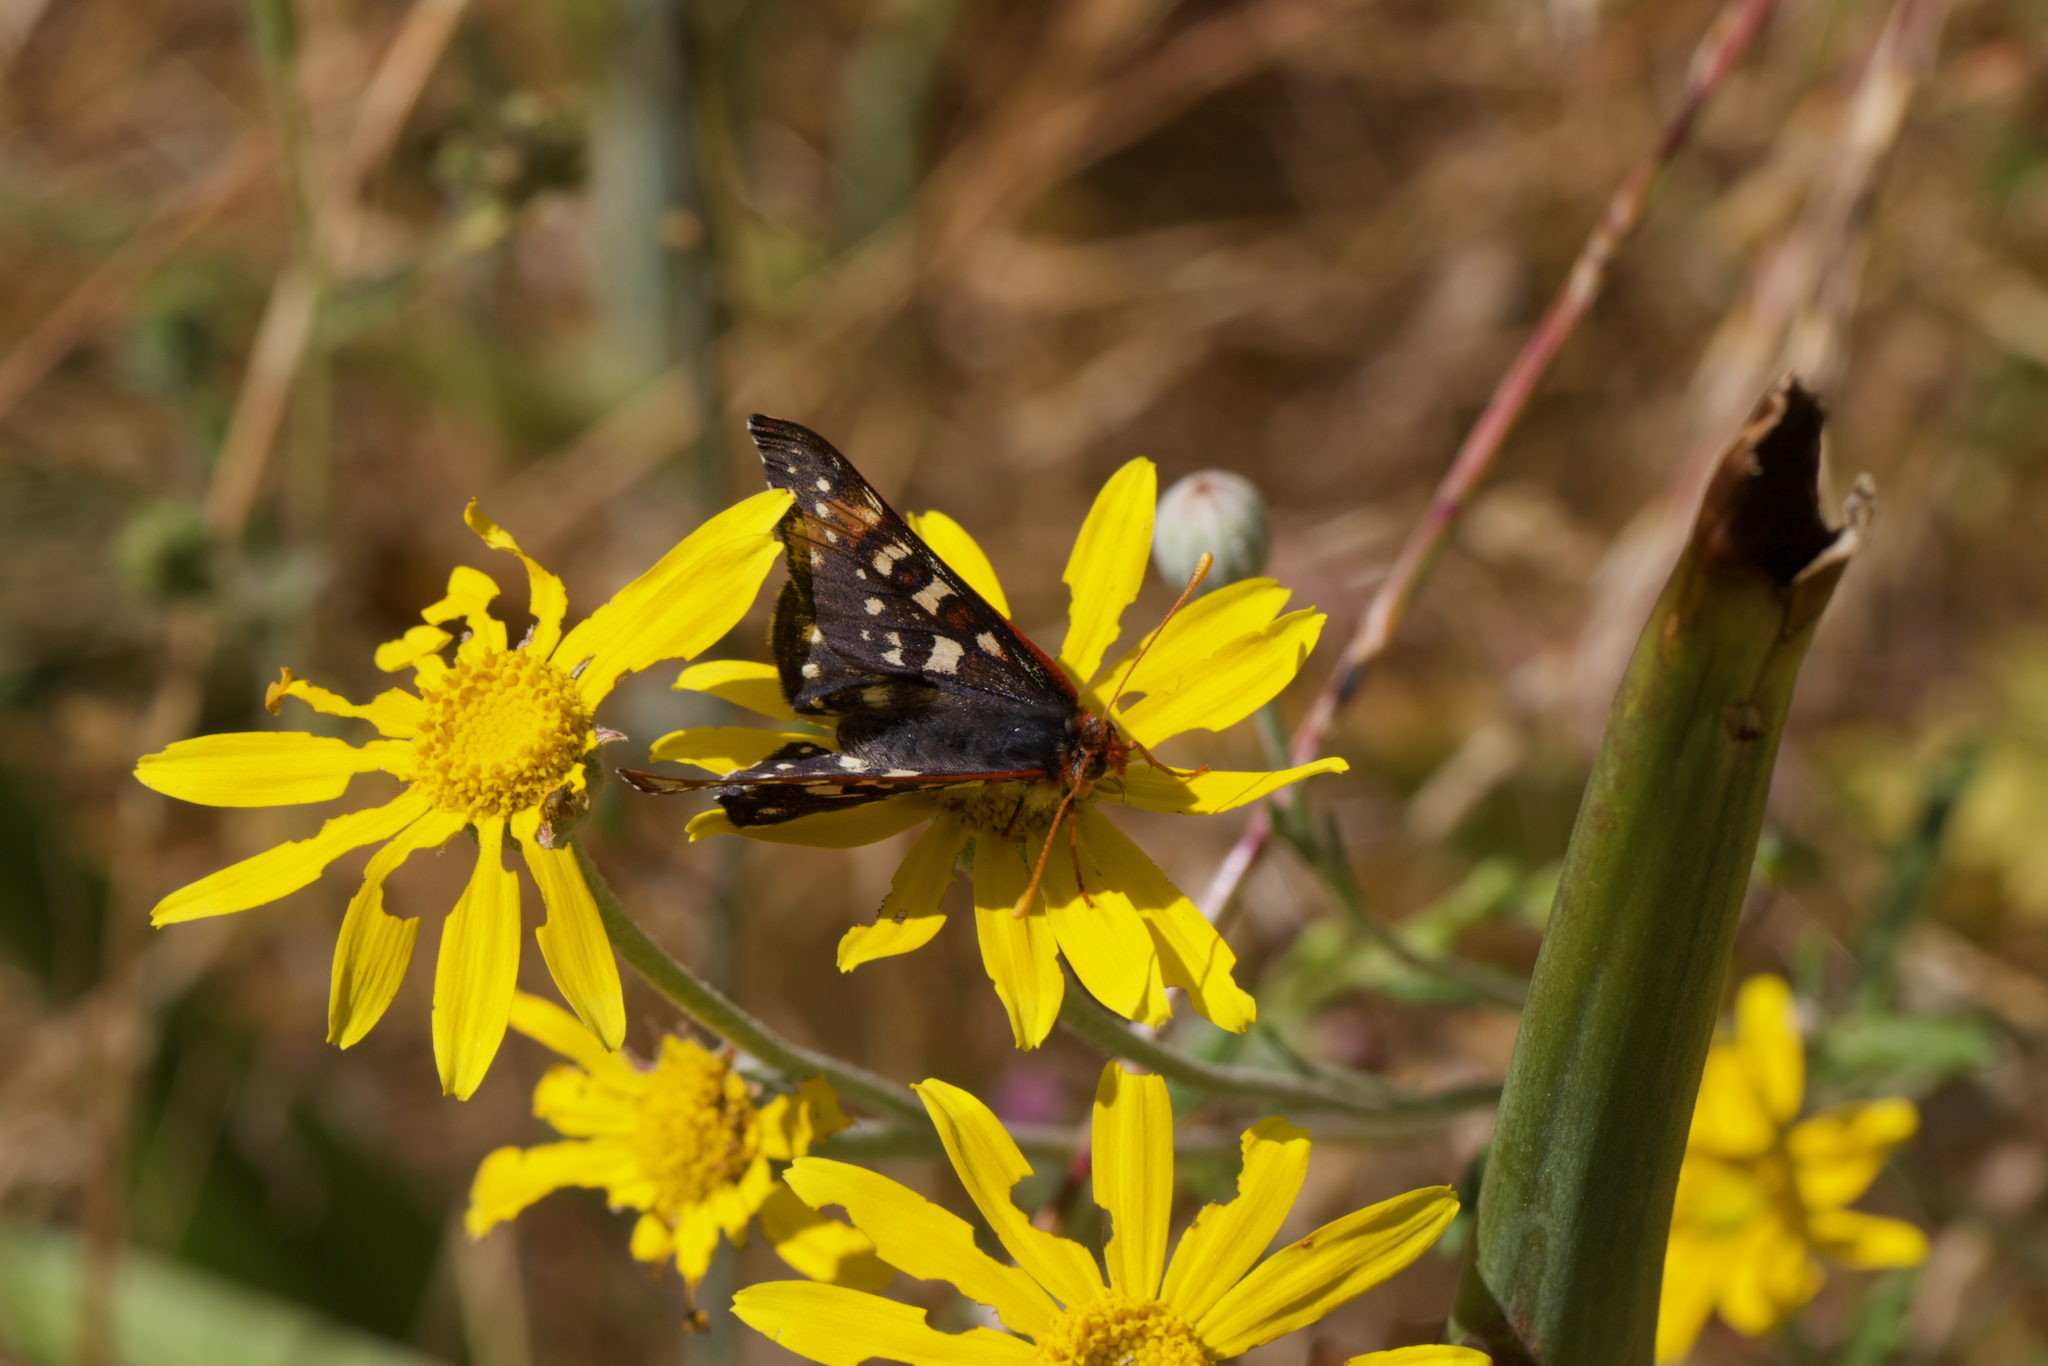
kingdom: Animalia
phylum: Arthropoda
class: Insecta
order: Lepidoptera
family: Nymphalidae
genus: Occidryas
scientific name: Occidryas chalcedona
